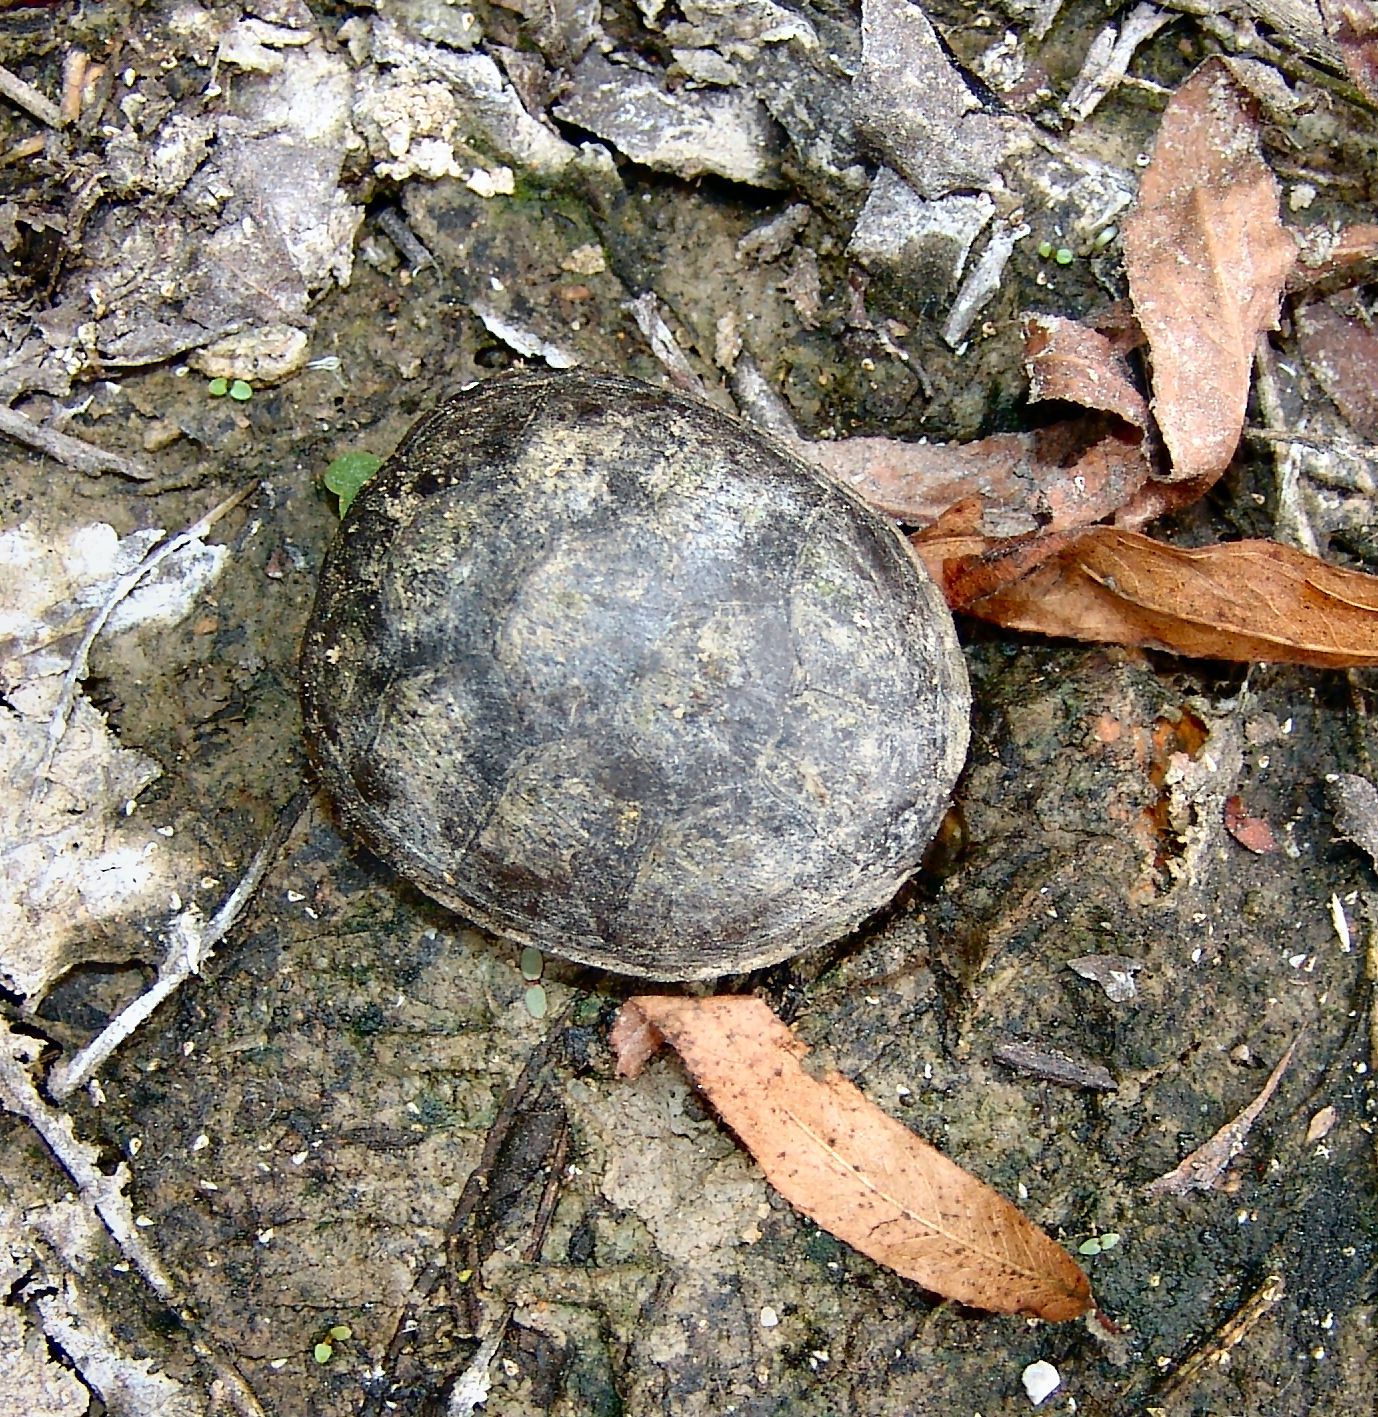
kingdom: Animalia
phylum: Chordata
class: Testudines
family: Kinosternidae
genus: Kinosternon
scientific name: Kinosternon subrubrum
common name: Eastern mud turtle
